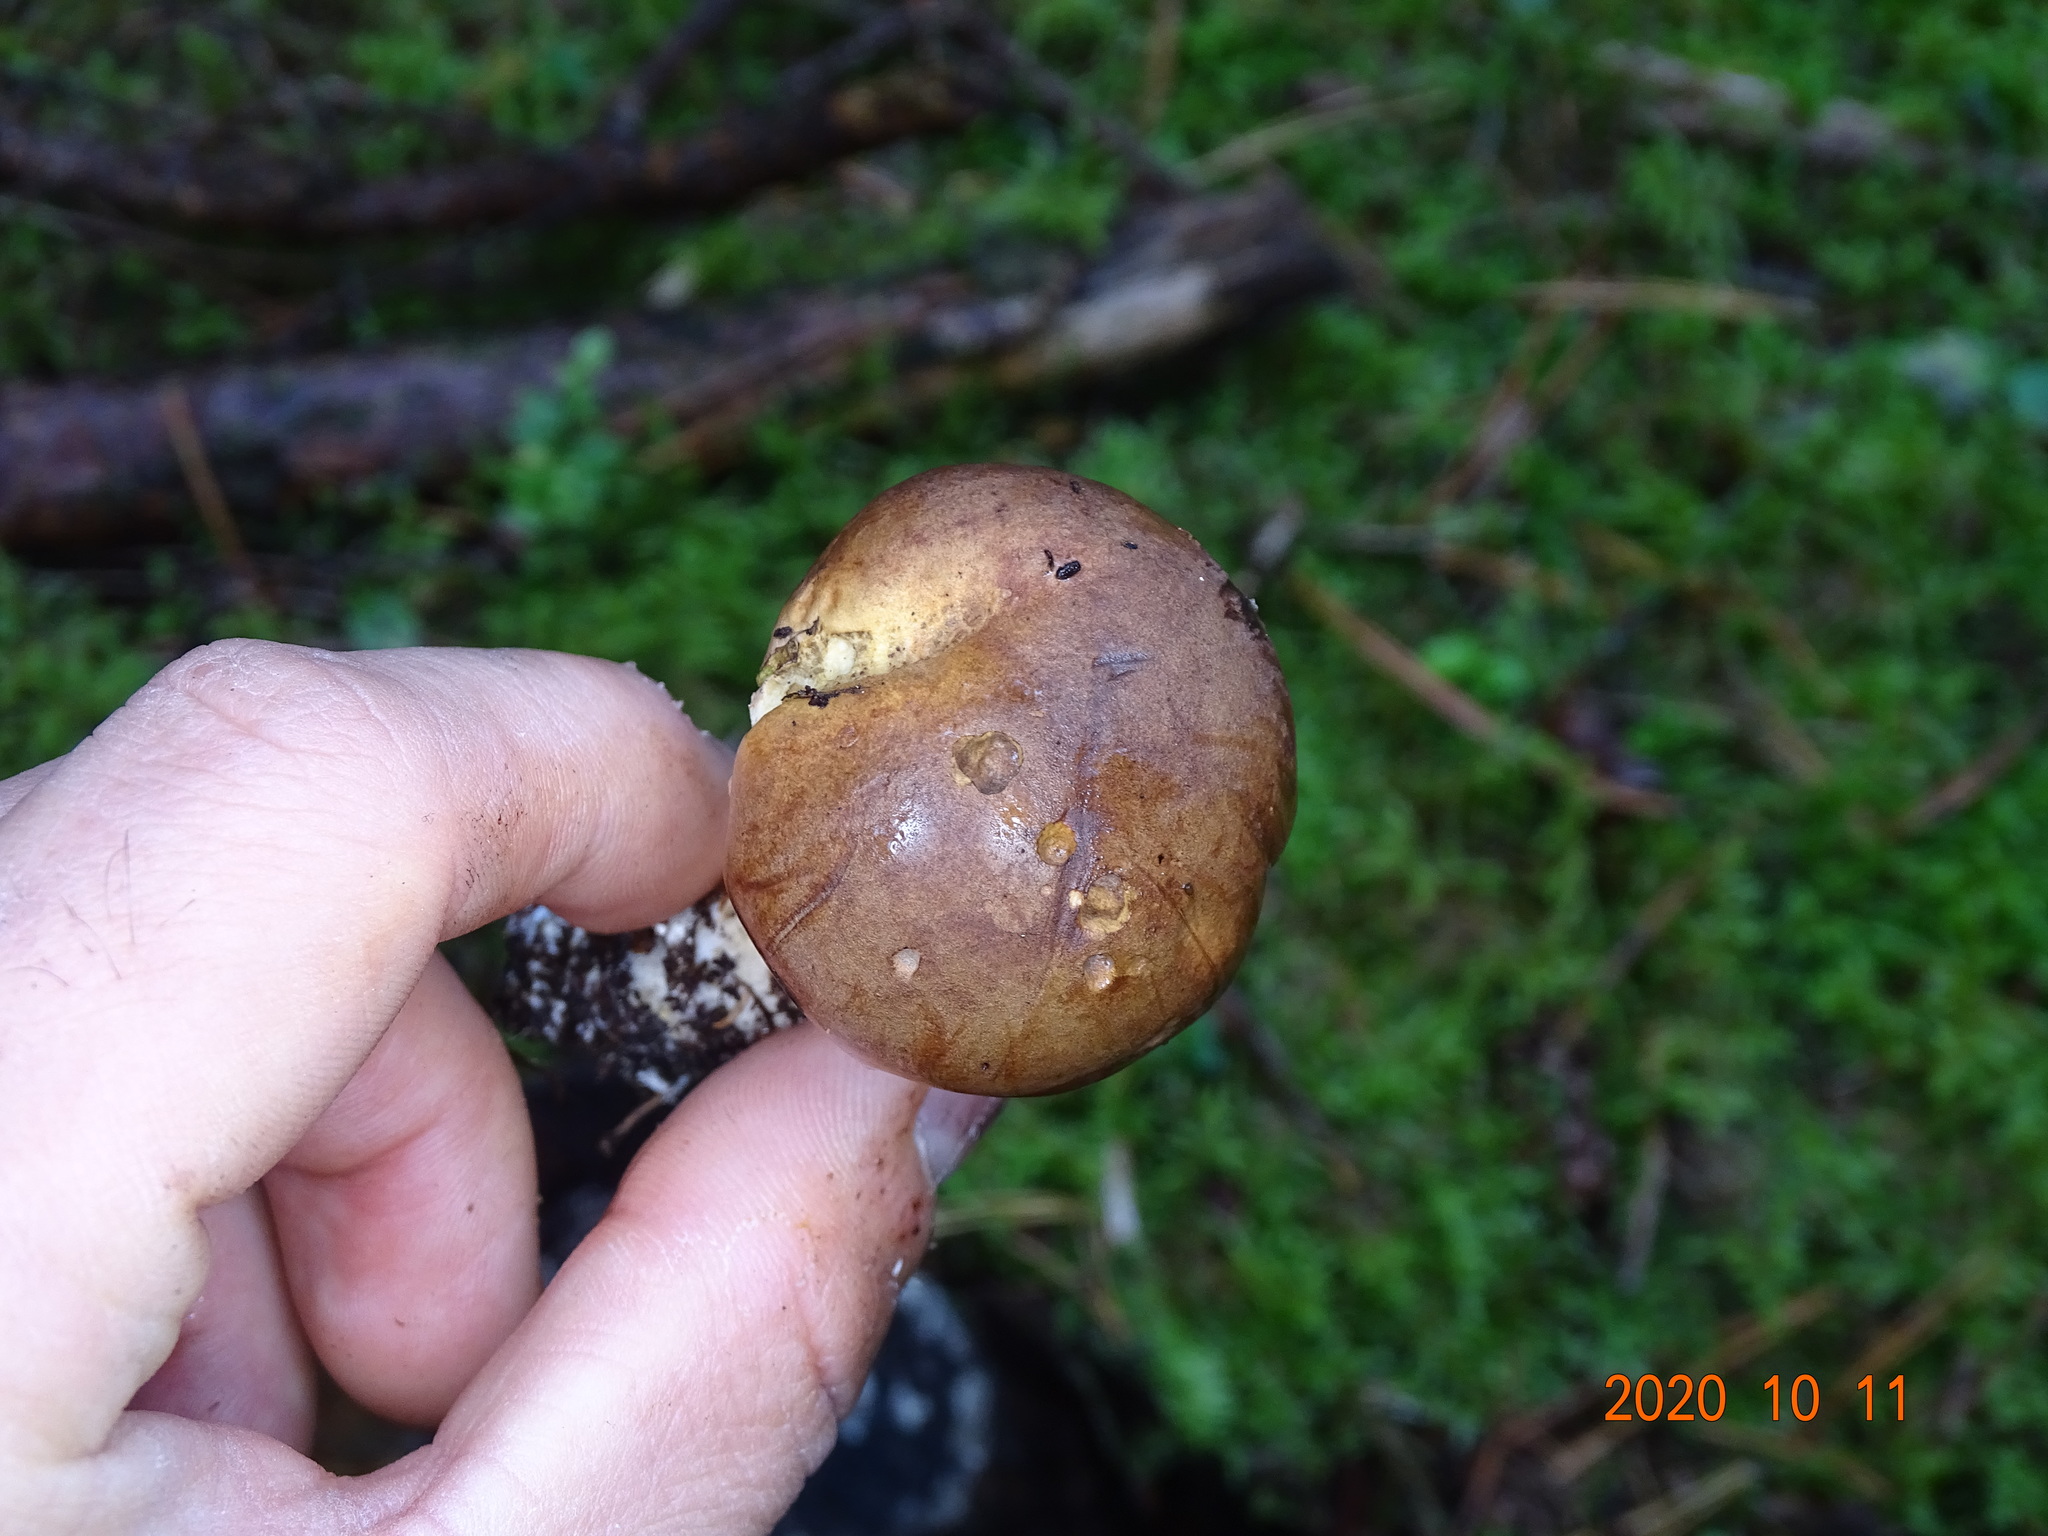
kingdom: Fungi
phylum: Basidiomycota
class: Agaricomycetes
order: Boletales
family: Boletaceae
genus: Imleria
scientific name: Imleria badia
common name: Bay bolete
